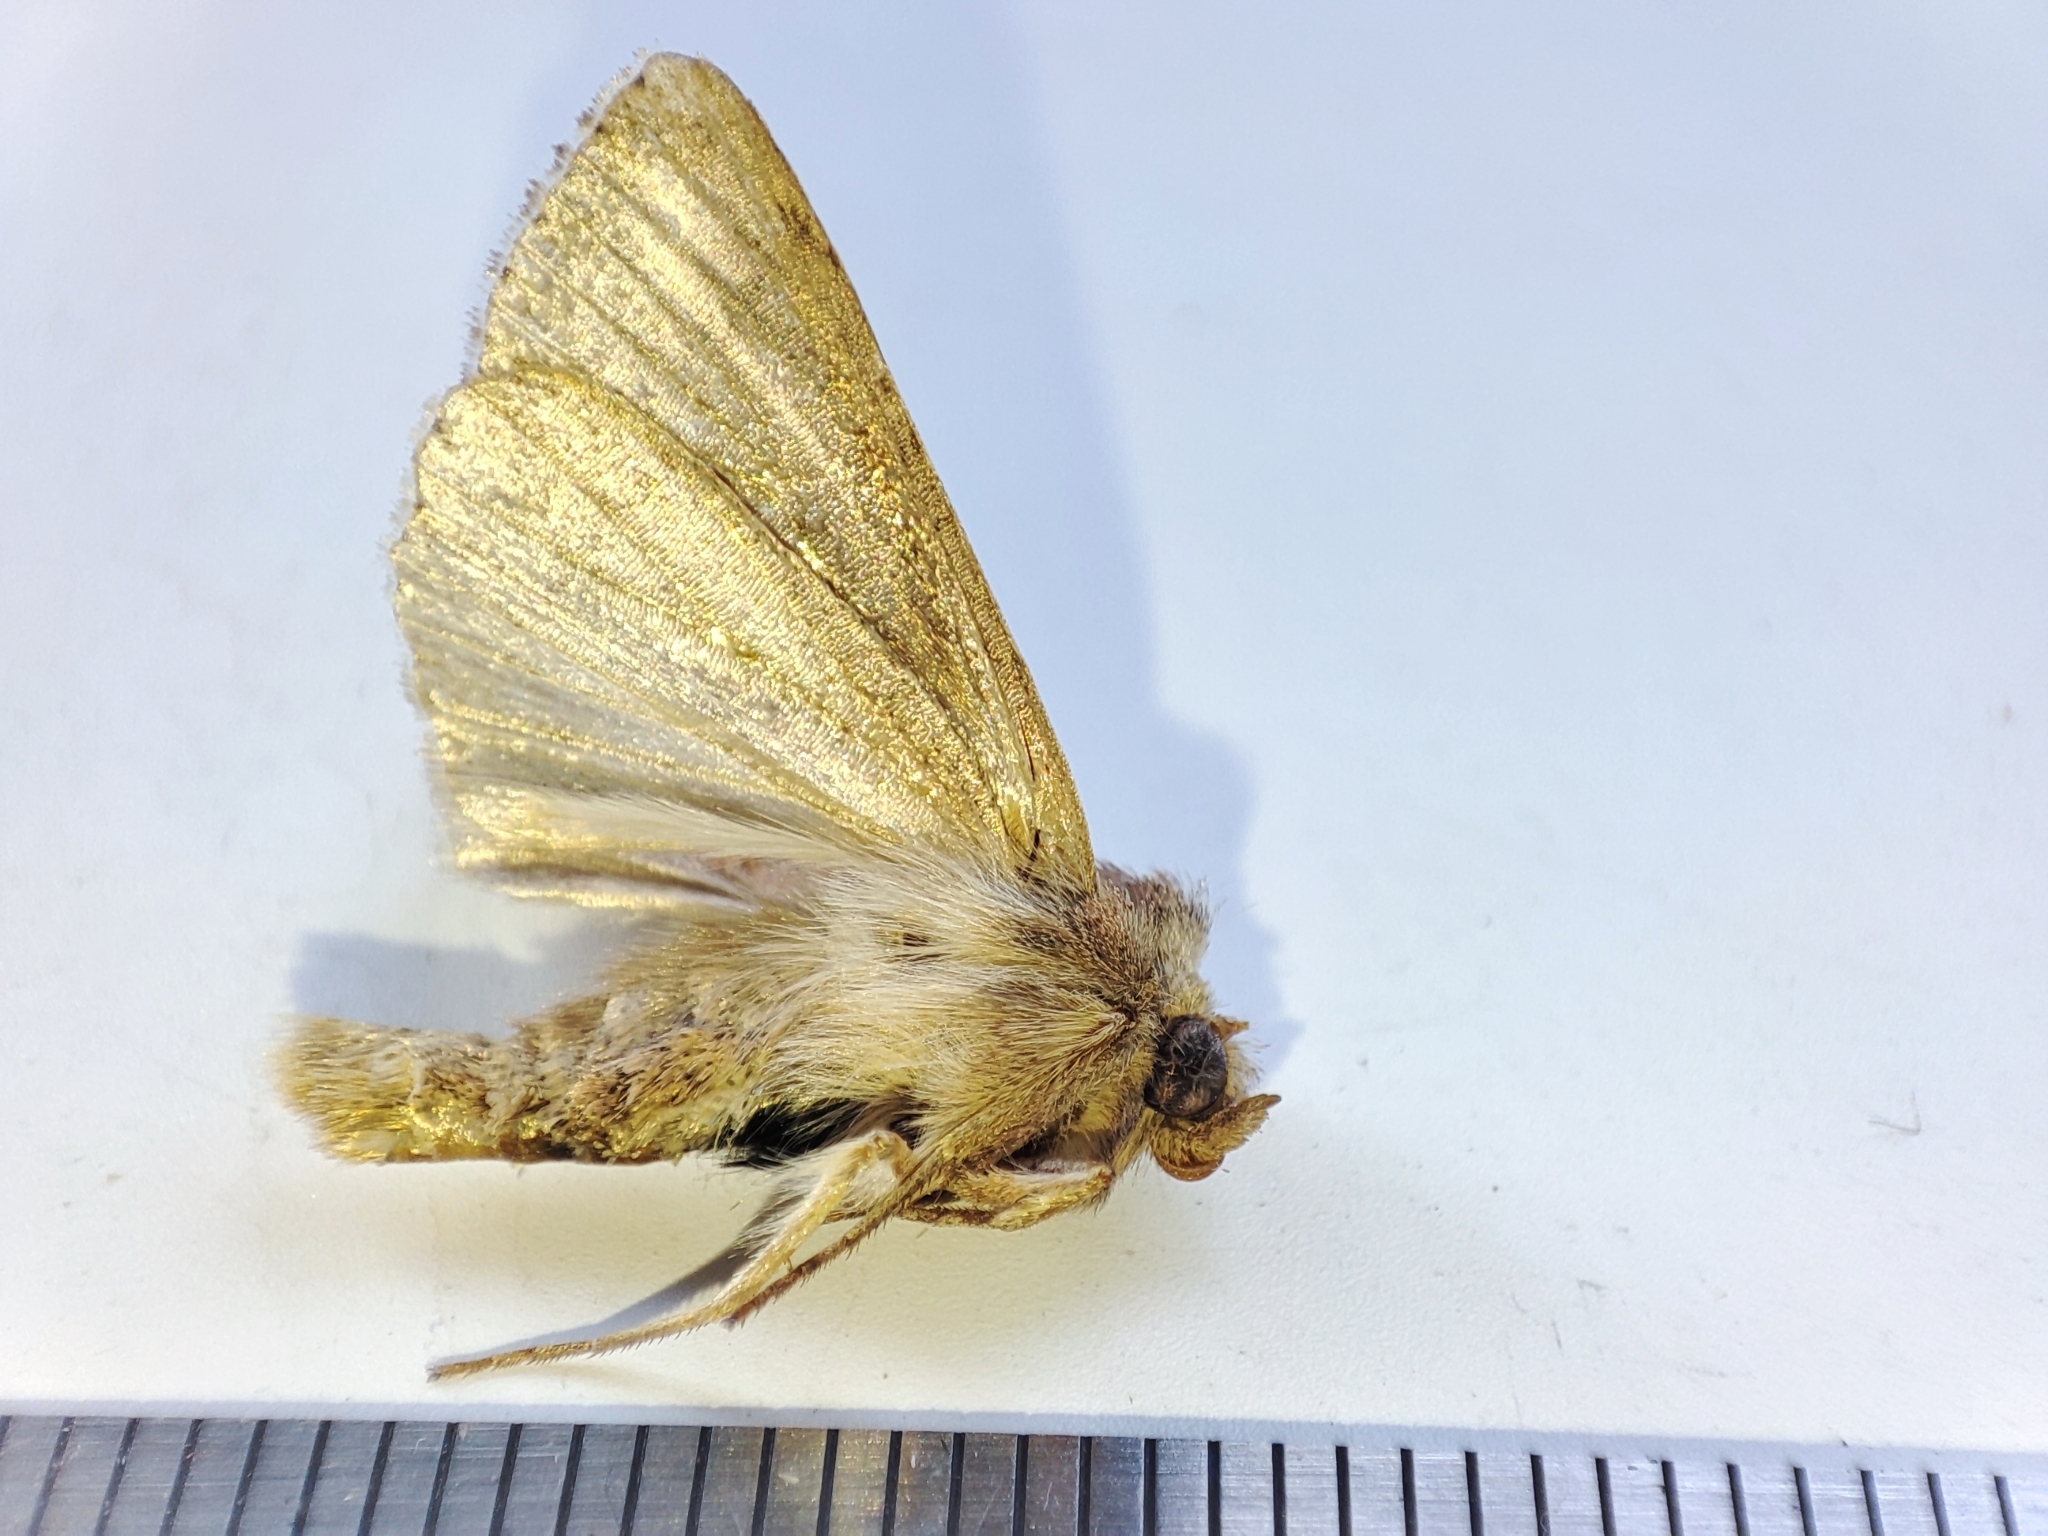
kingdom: Animalia
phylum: Arthropoda
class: Insecta
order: Lepidoptera
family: Noctuidae
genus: Mythimna
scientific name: Mythimna albipuncta
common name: White-point
